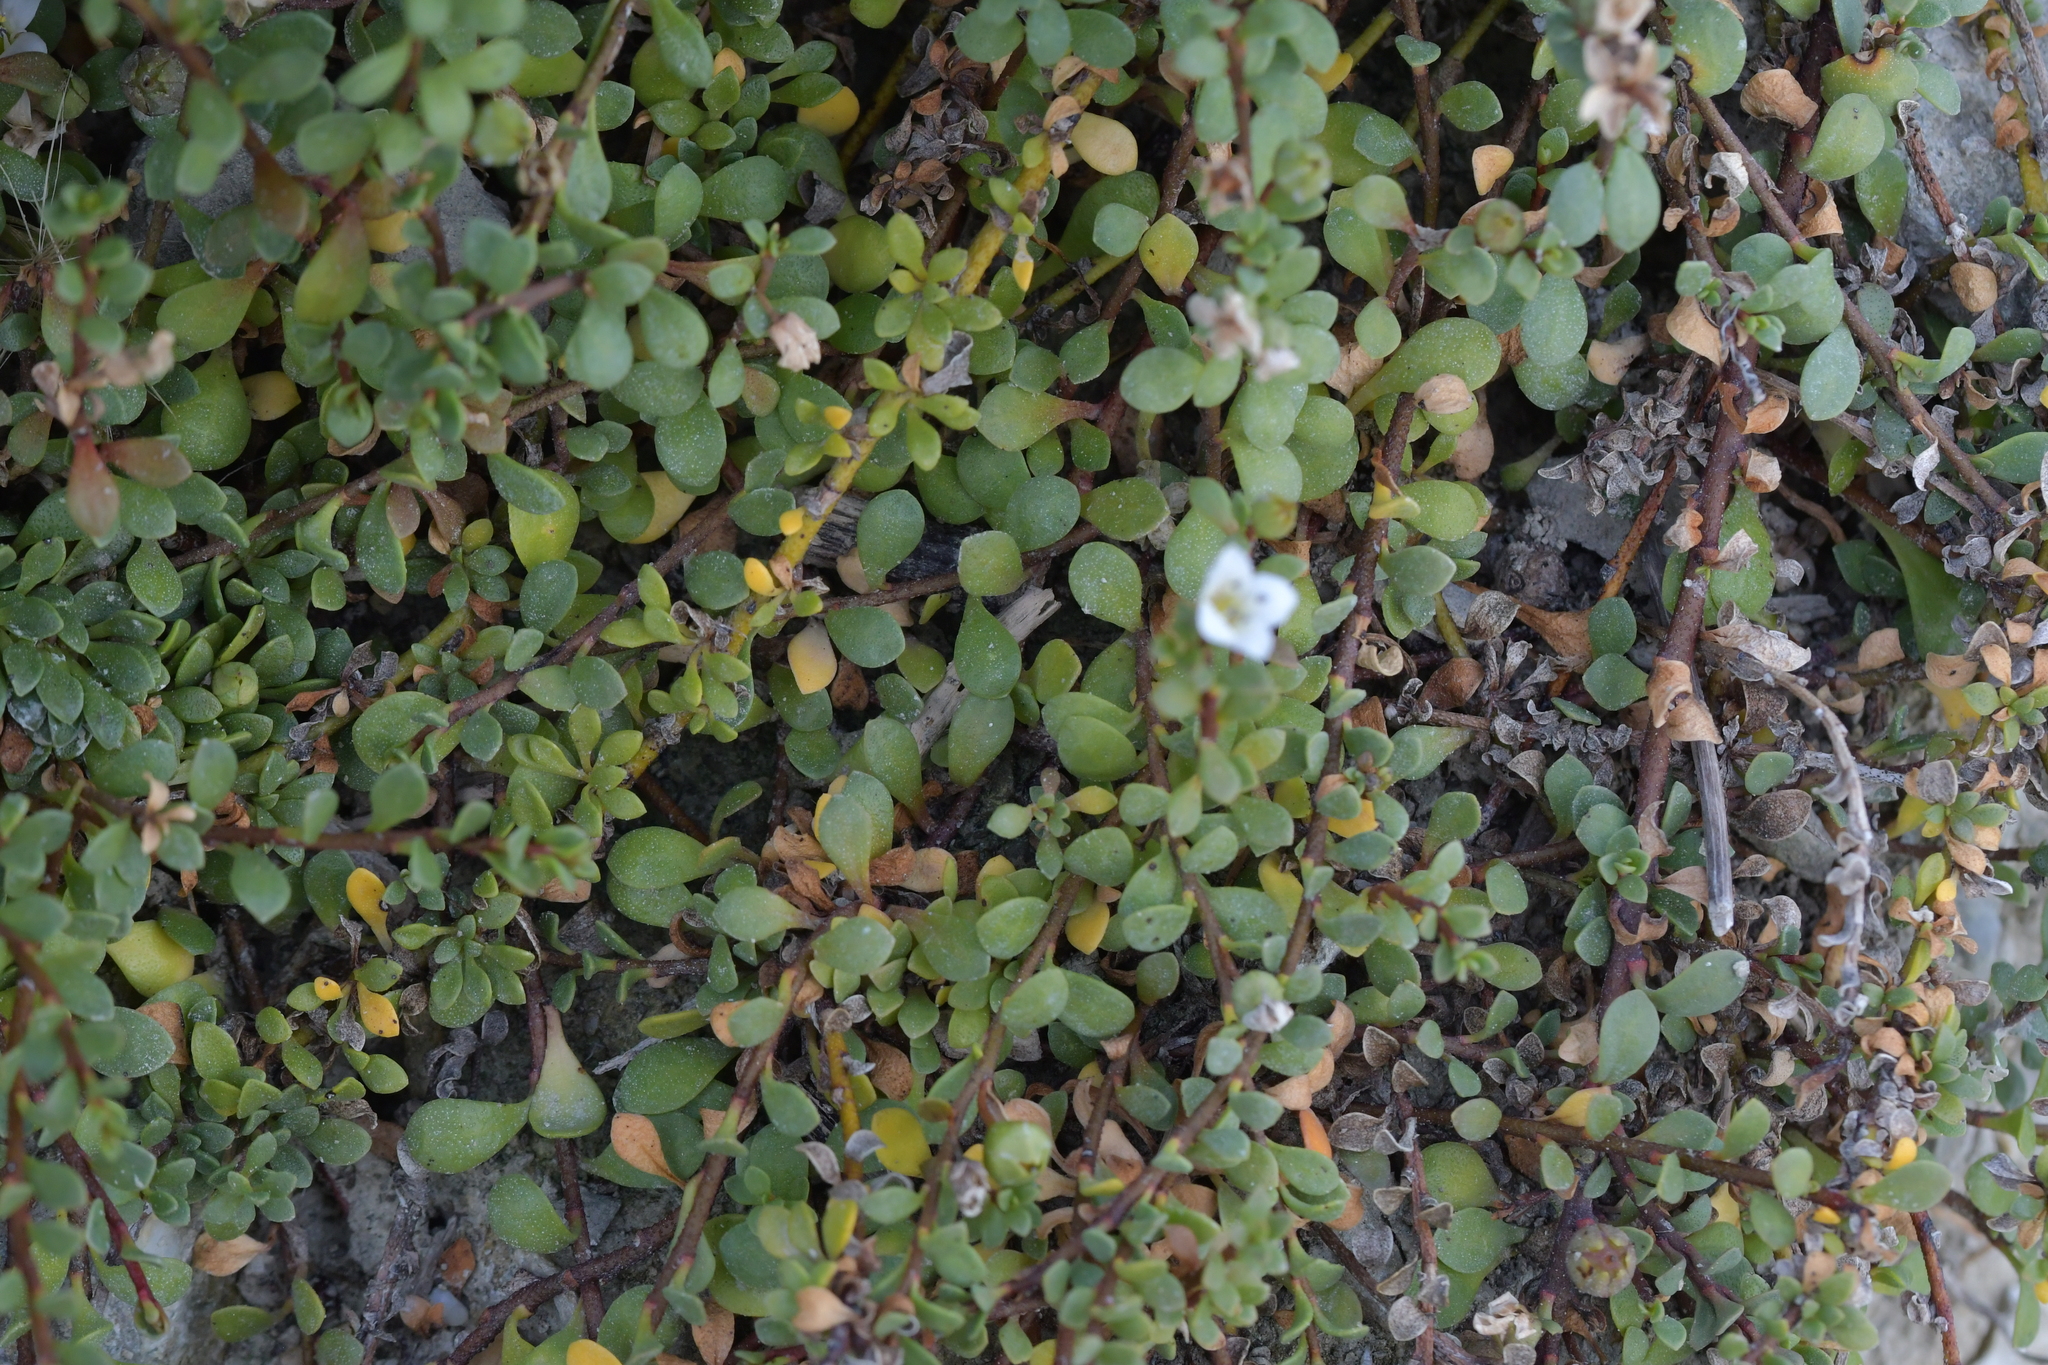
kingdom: Plantae
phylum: Tracheophyta
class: Magnoliopsida
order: Ericales
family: Primulaceae
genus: Samolus
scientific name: Samolus repens
